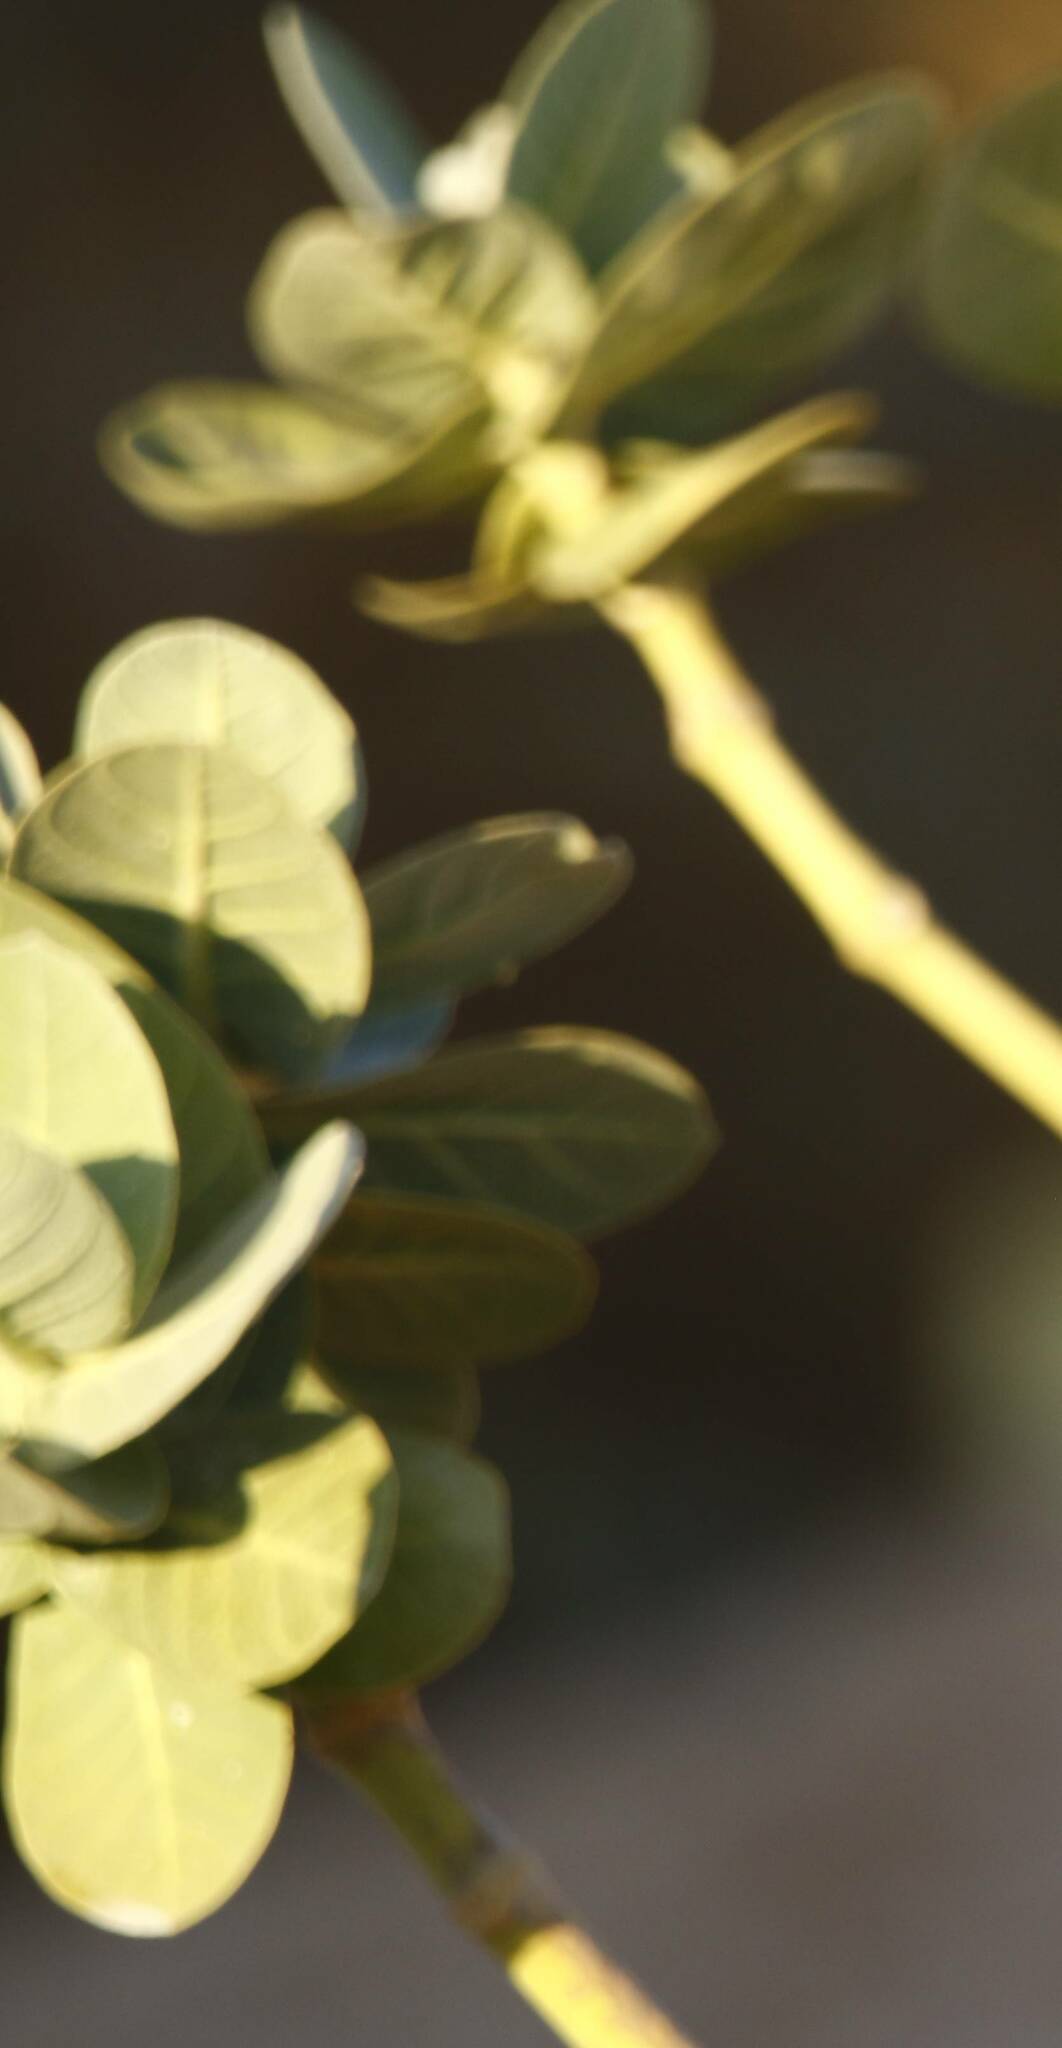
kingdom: Plantae
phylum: Tracheophyta
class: Magnoliopsida
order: Gentianales
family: Apocynaceae
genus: Calotropis
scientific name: Calotropis procera
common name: Roostertree
